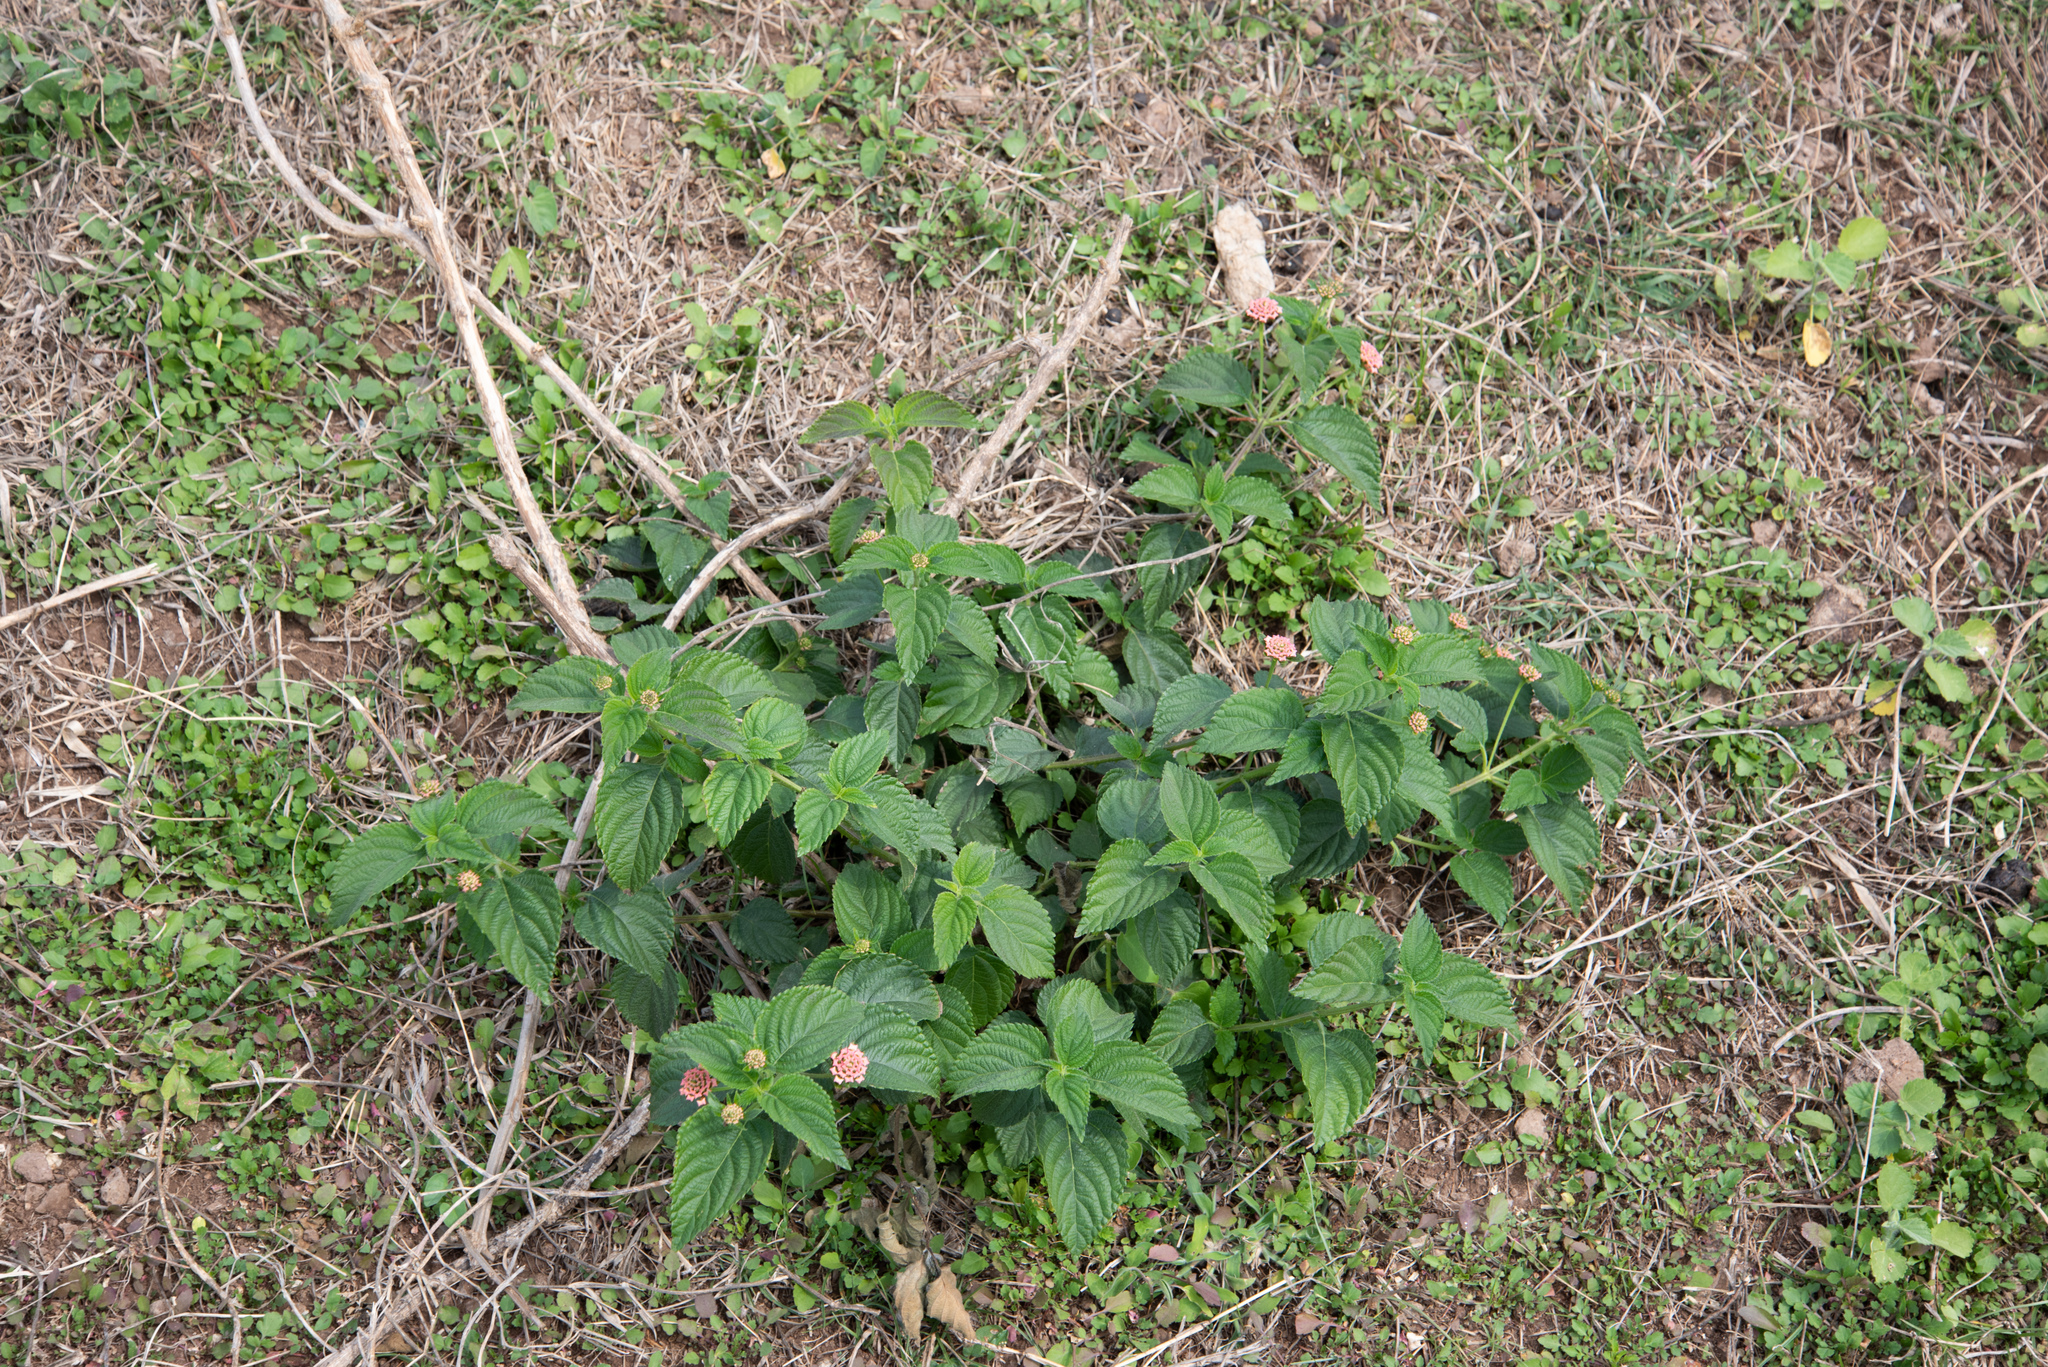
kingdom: Plantae
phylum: Tracheophyta
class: Magnoliopsida
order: Lamiales
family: Verbenaceae
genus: Lantana
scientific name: Lantana camara
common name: Lantana
